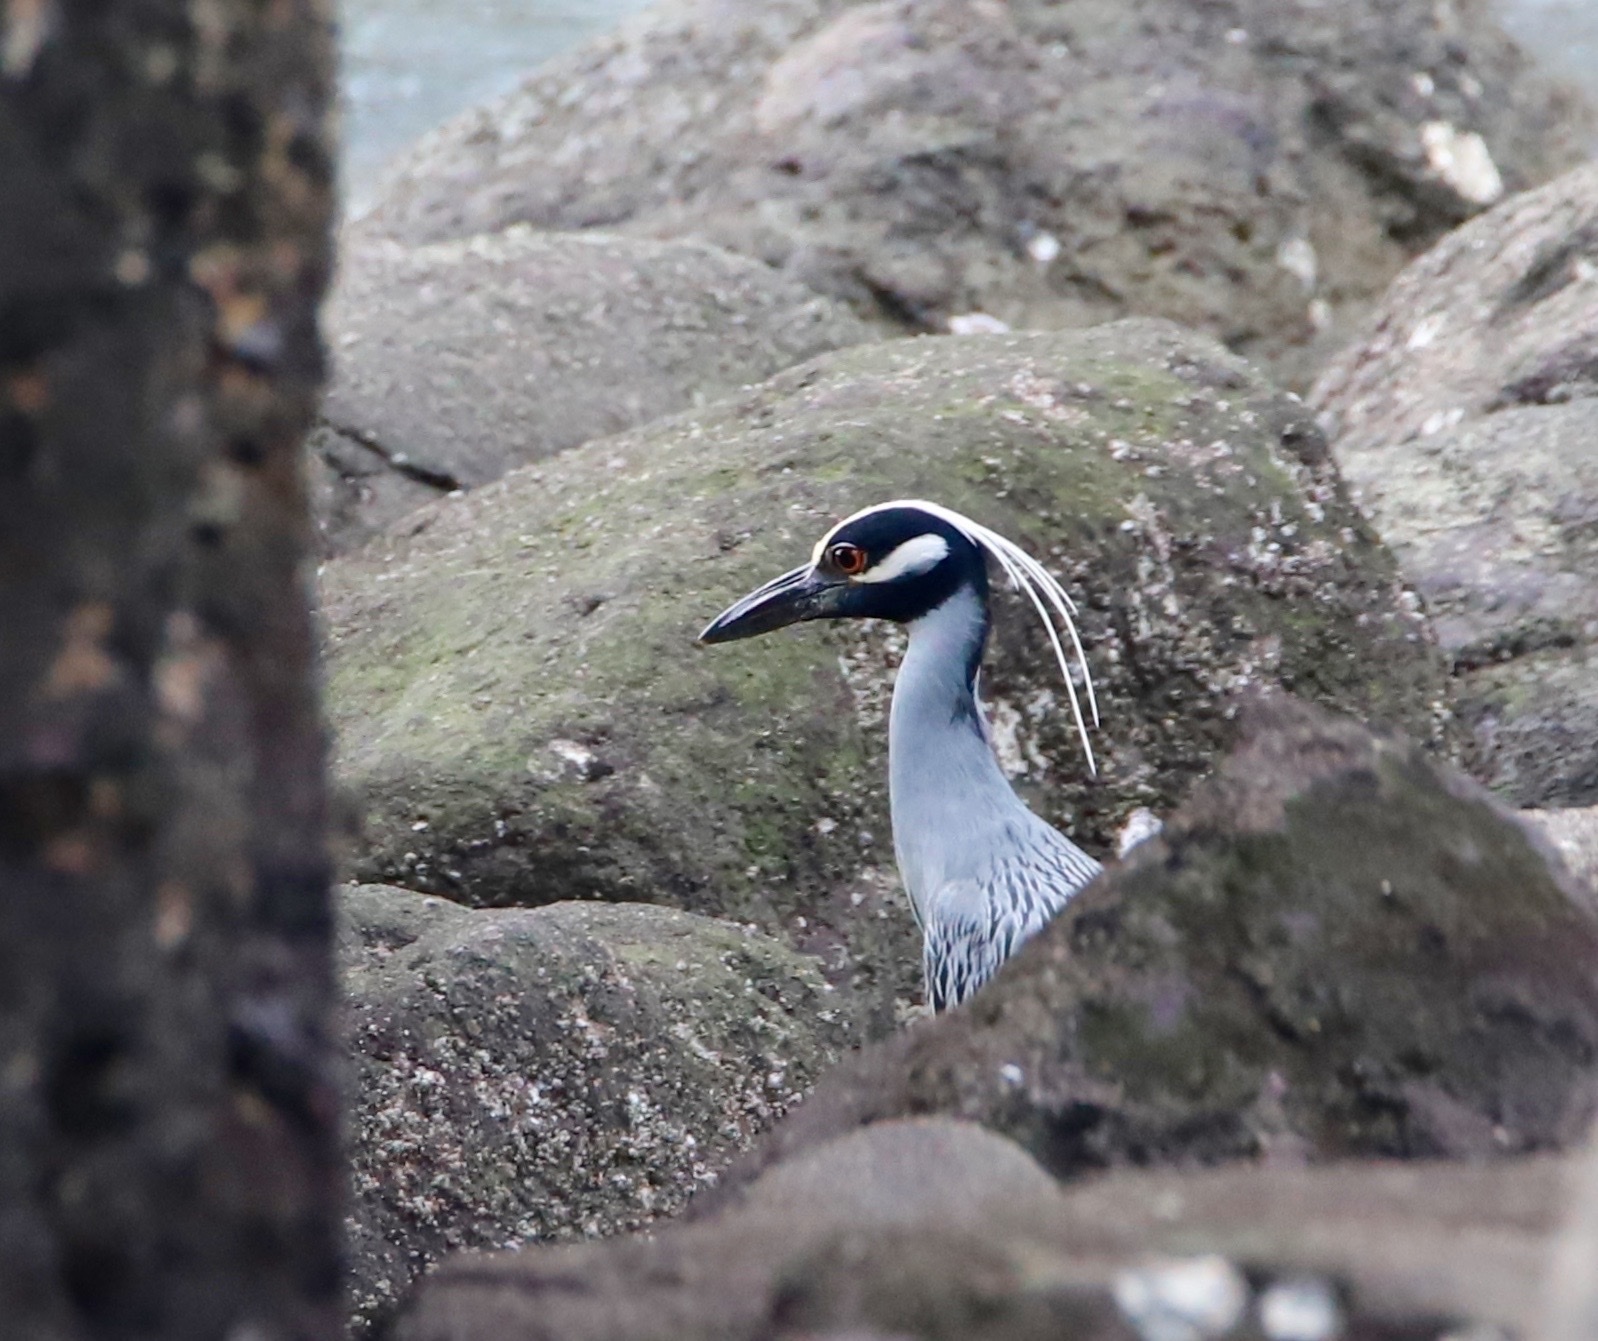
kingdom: Animalia
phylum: Chordata
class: Aves
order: Pelecaniformes
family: Ardeidae
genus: Nyctanassa
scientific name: Nyctanassa violacea
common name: Yellow-crowned night heron
